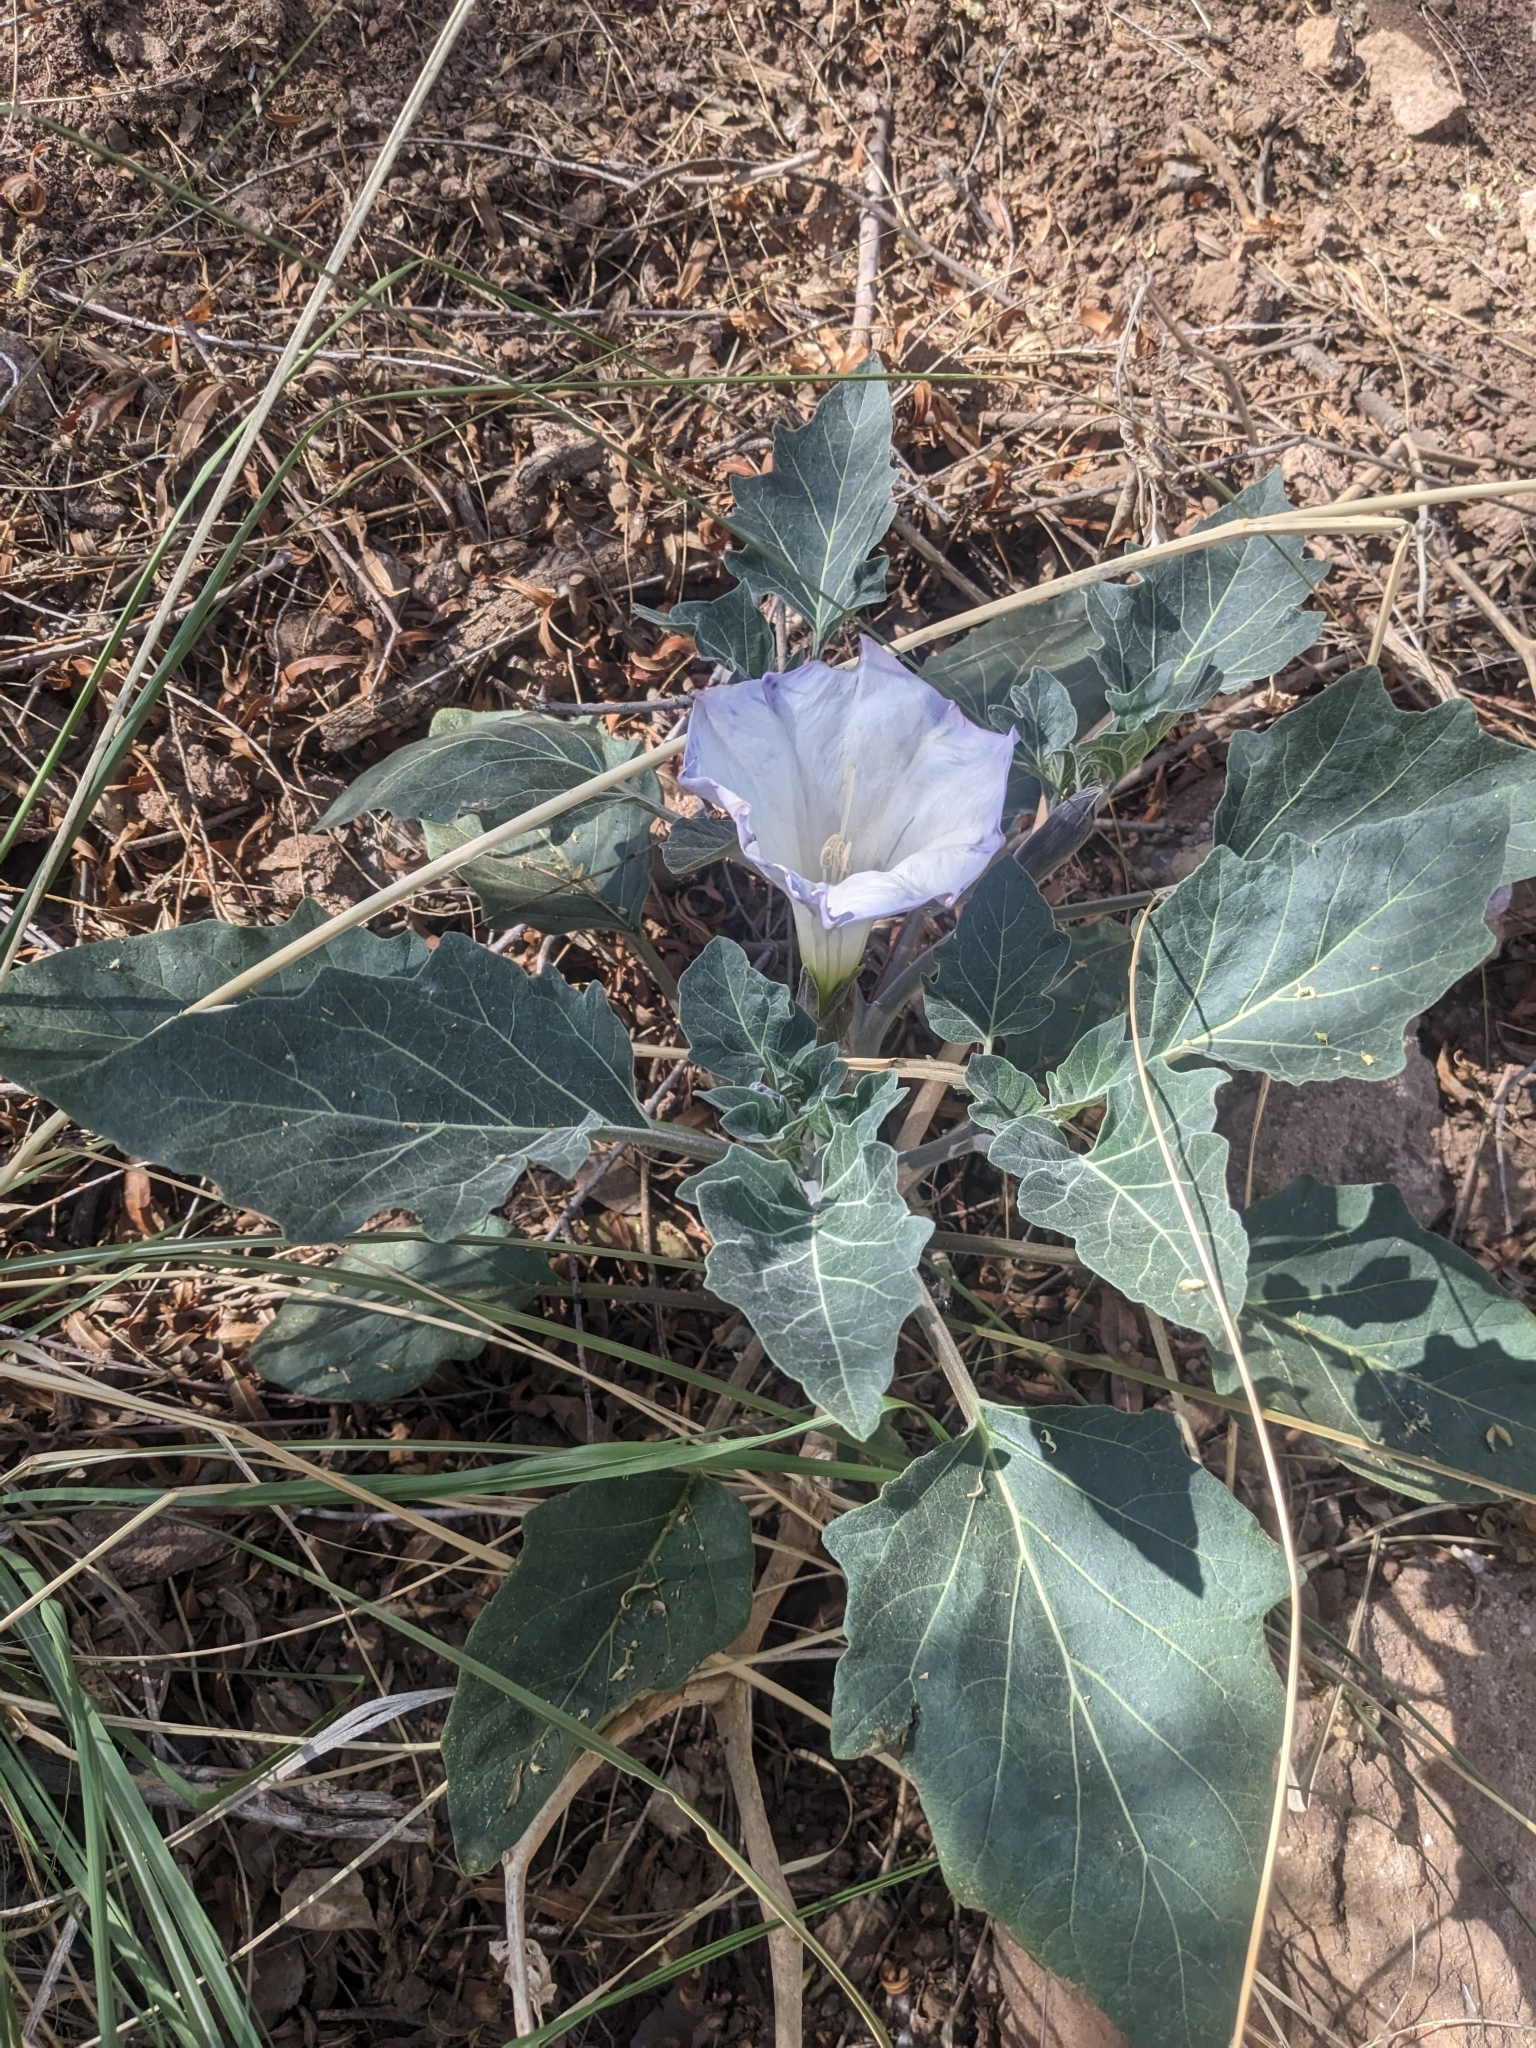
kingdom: Plantae
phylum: Tracheophyta
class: Magnoliopsida
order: Solanales
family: Solanaceae
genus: Datura
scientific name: Datura wrightii
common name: Sacred thorn-apple
